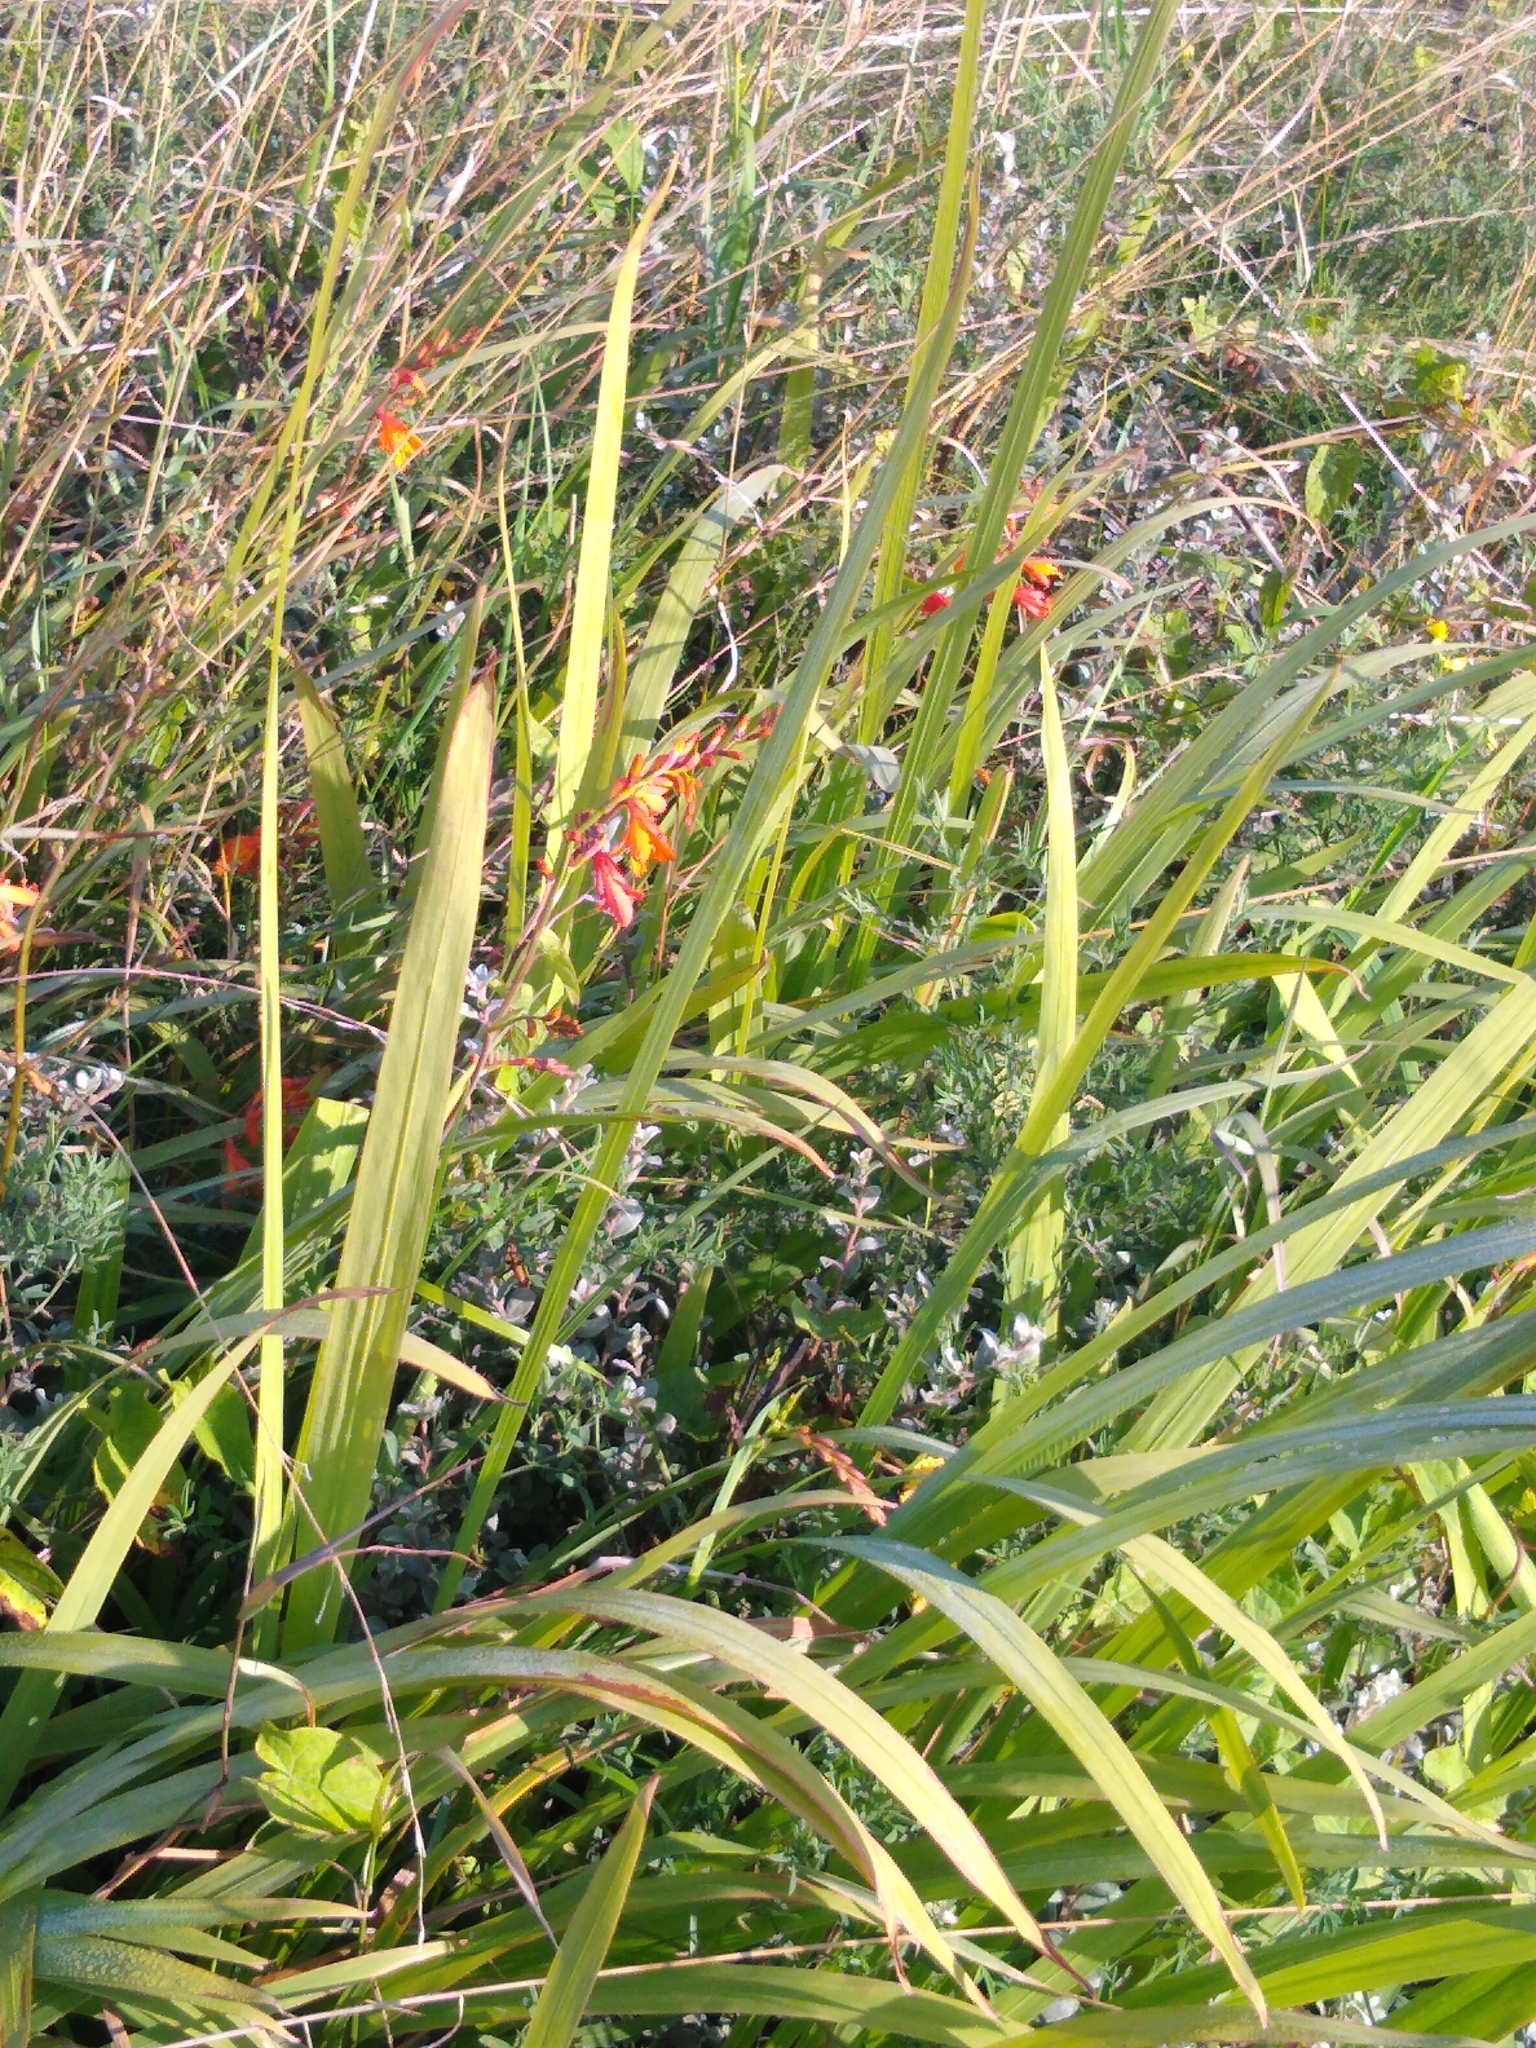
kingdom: Plantae
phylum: Tracheophyta
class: Liliopsida
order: Asparagales
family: Iridaceae
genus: Crocosmia
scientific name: Crocosmia crocosmiiflora
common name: Montbretia
